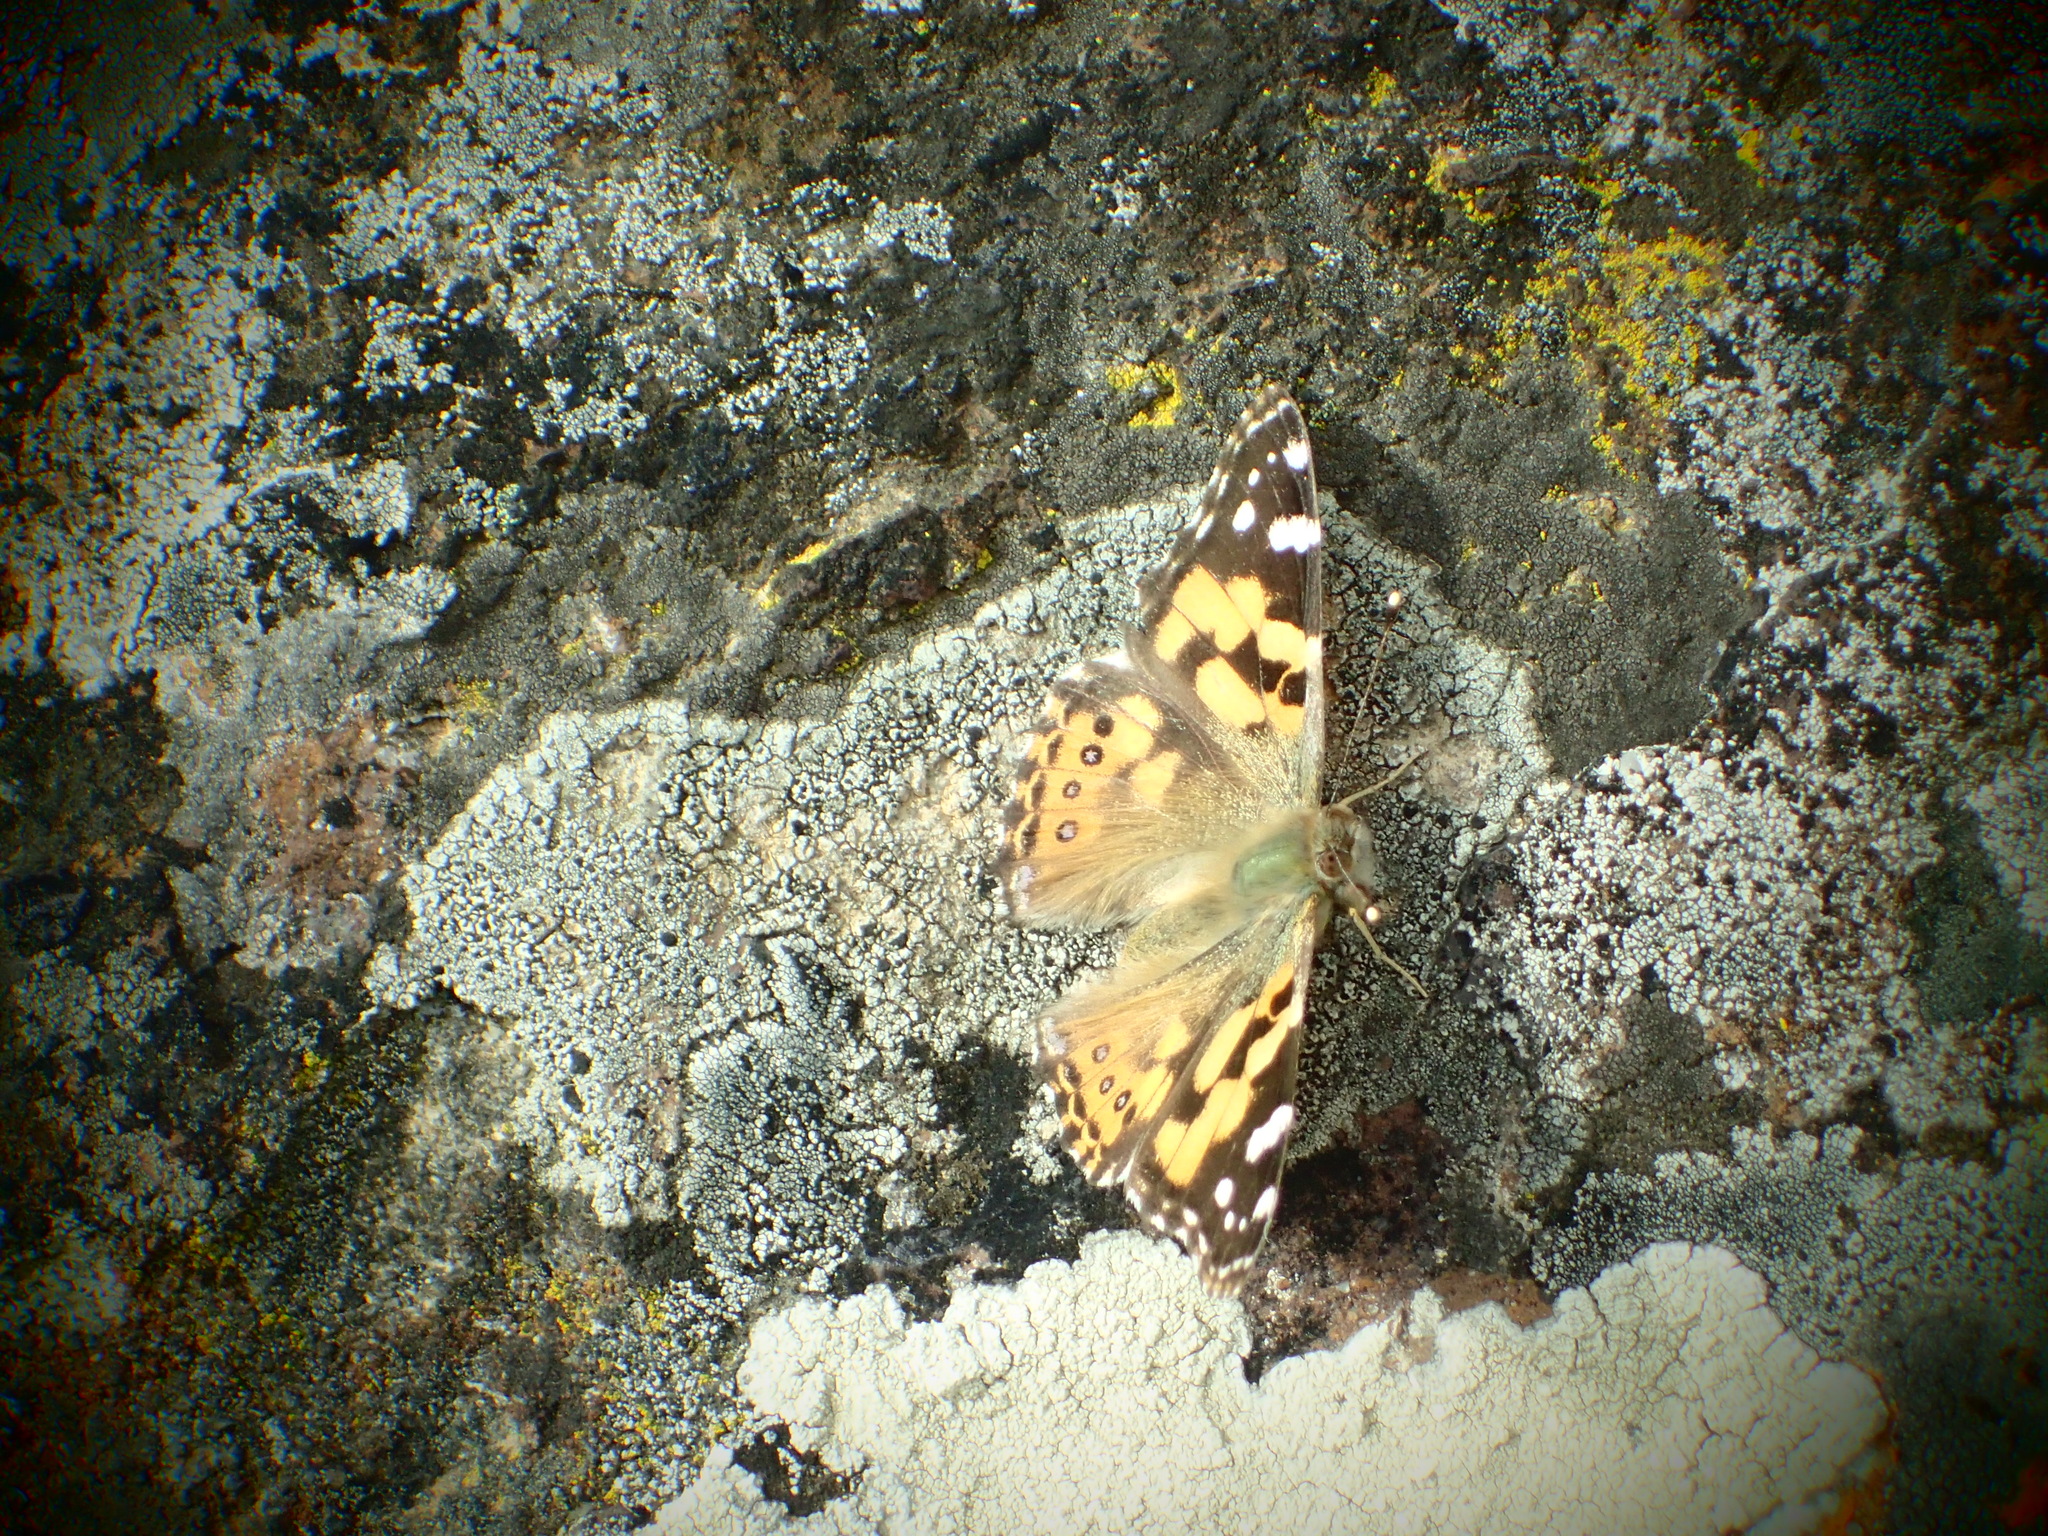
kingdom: Animalia
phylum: Arthropoda
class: Insecta
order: Lepidoptera
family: Nymphalidae
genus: Vanessa
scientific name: Vanessa kershawi
